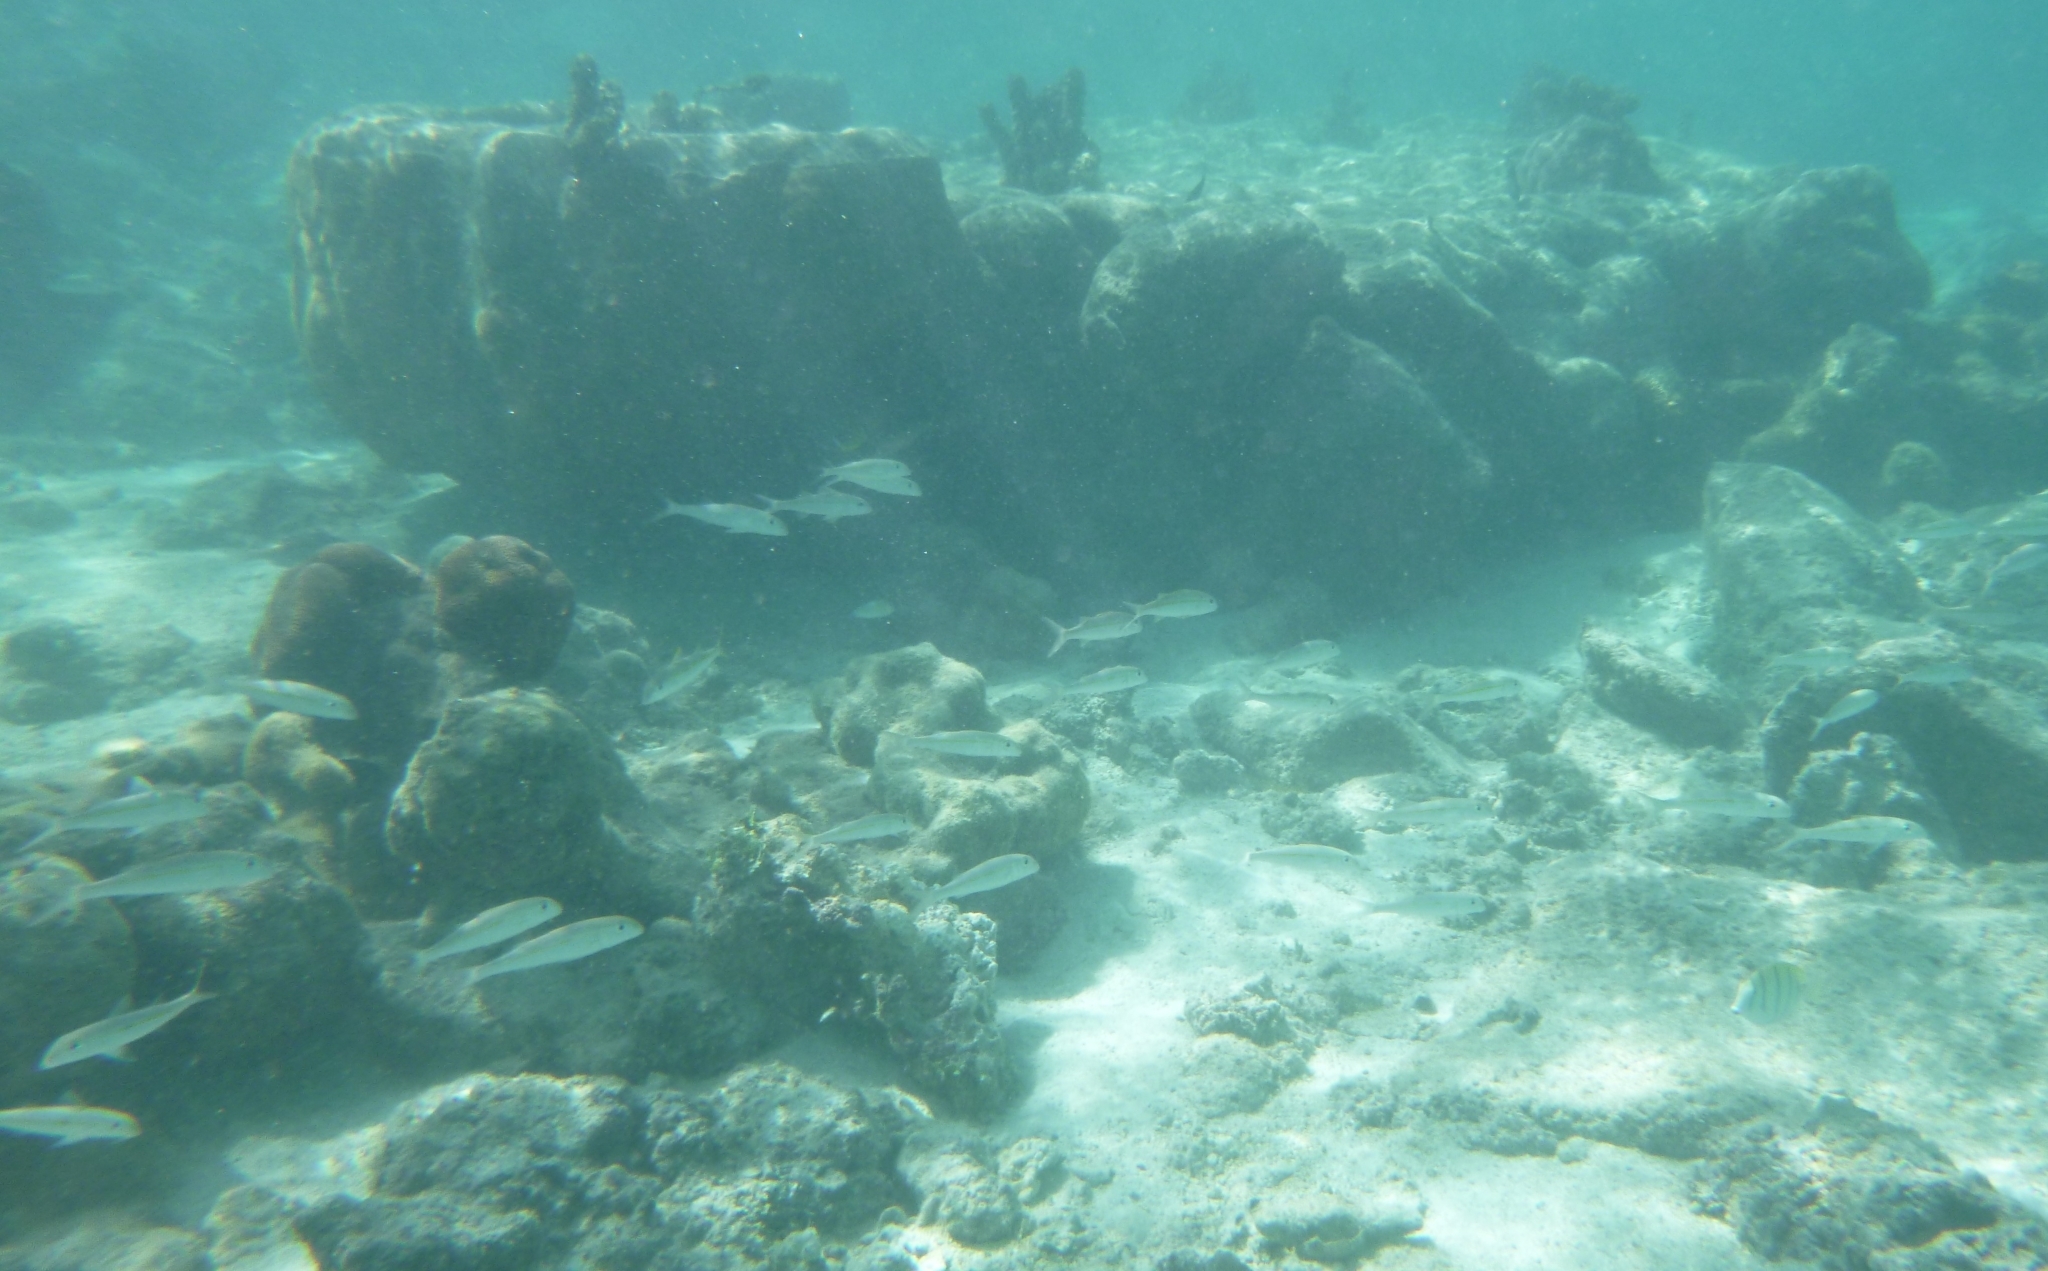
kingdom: Animalia
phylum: Chordata
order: Perciformes
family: Mullidae
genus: Mulloidichthys
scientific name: Mulloidichthys flavolineatus
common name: Yellowstripe goatfish
